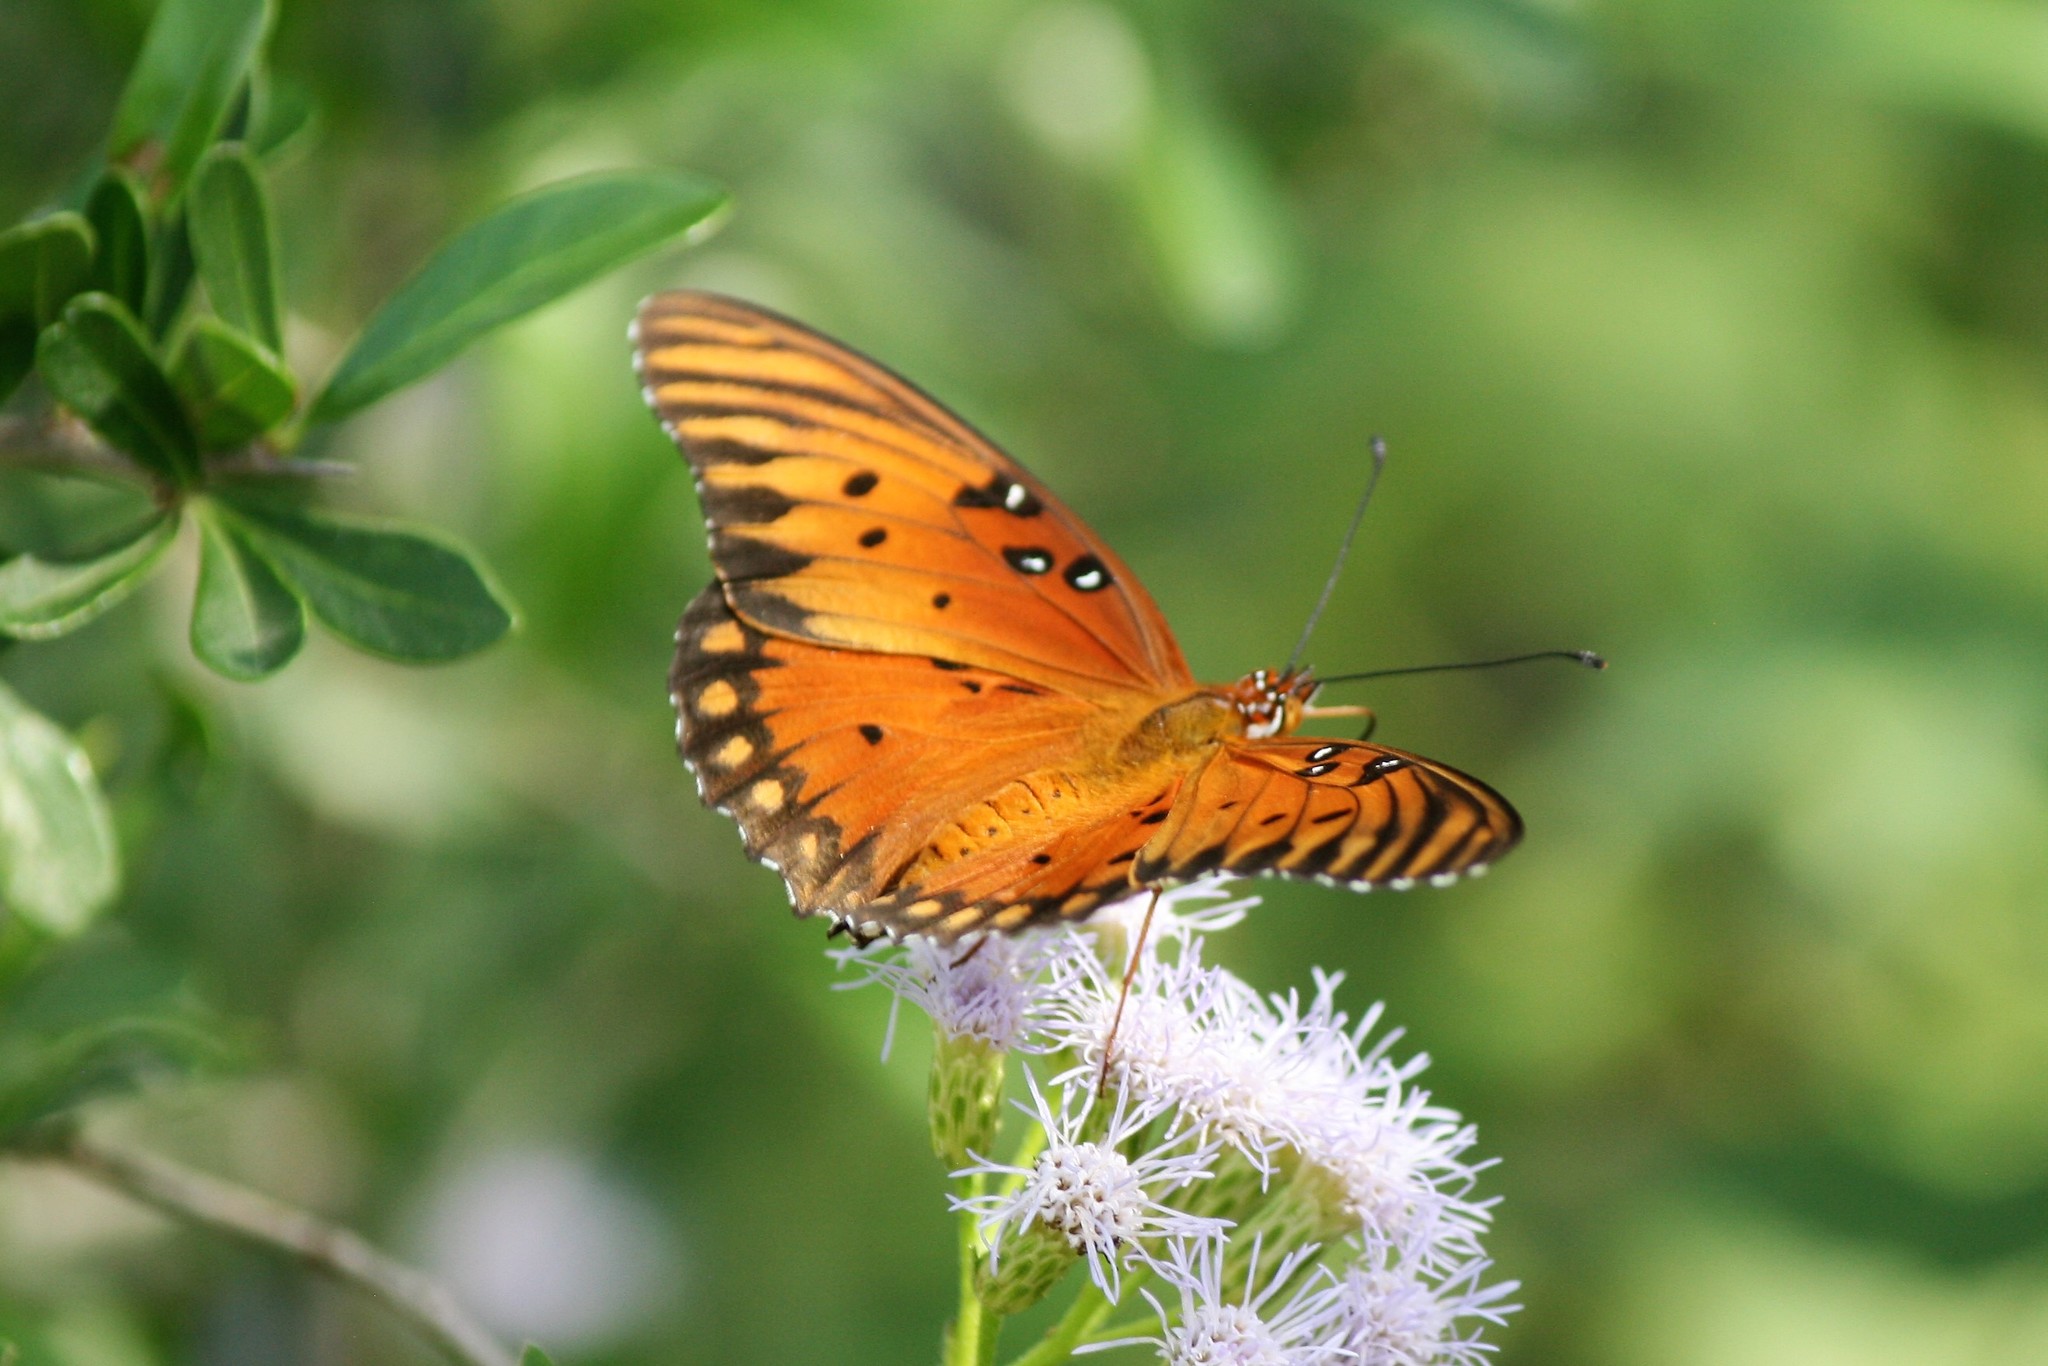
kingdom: Animalia
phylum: Arthropoda
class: Insecta
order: Lepidoptera
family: Nymphalidae
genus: Dione
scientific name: Dione vanillae
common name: Gulf fritillary
